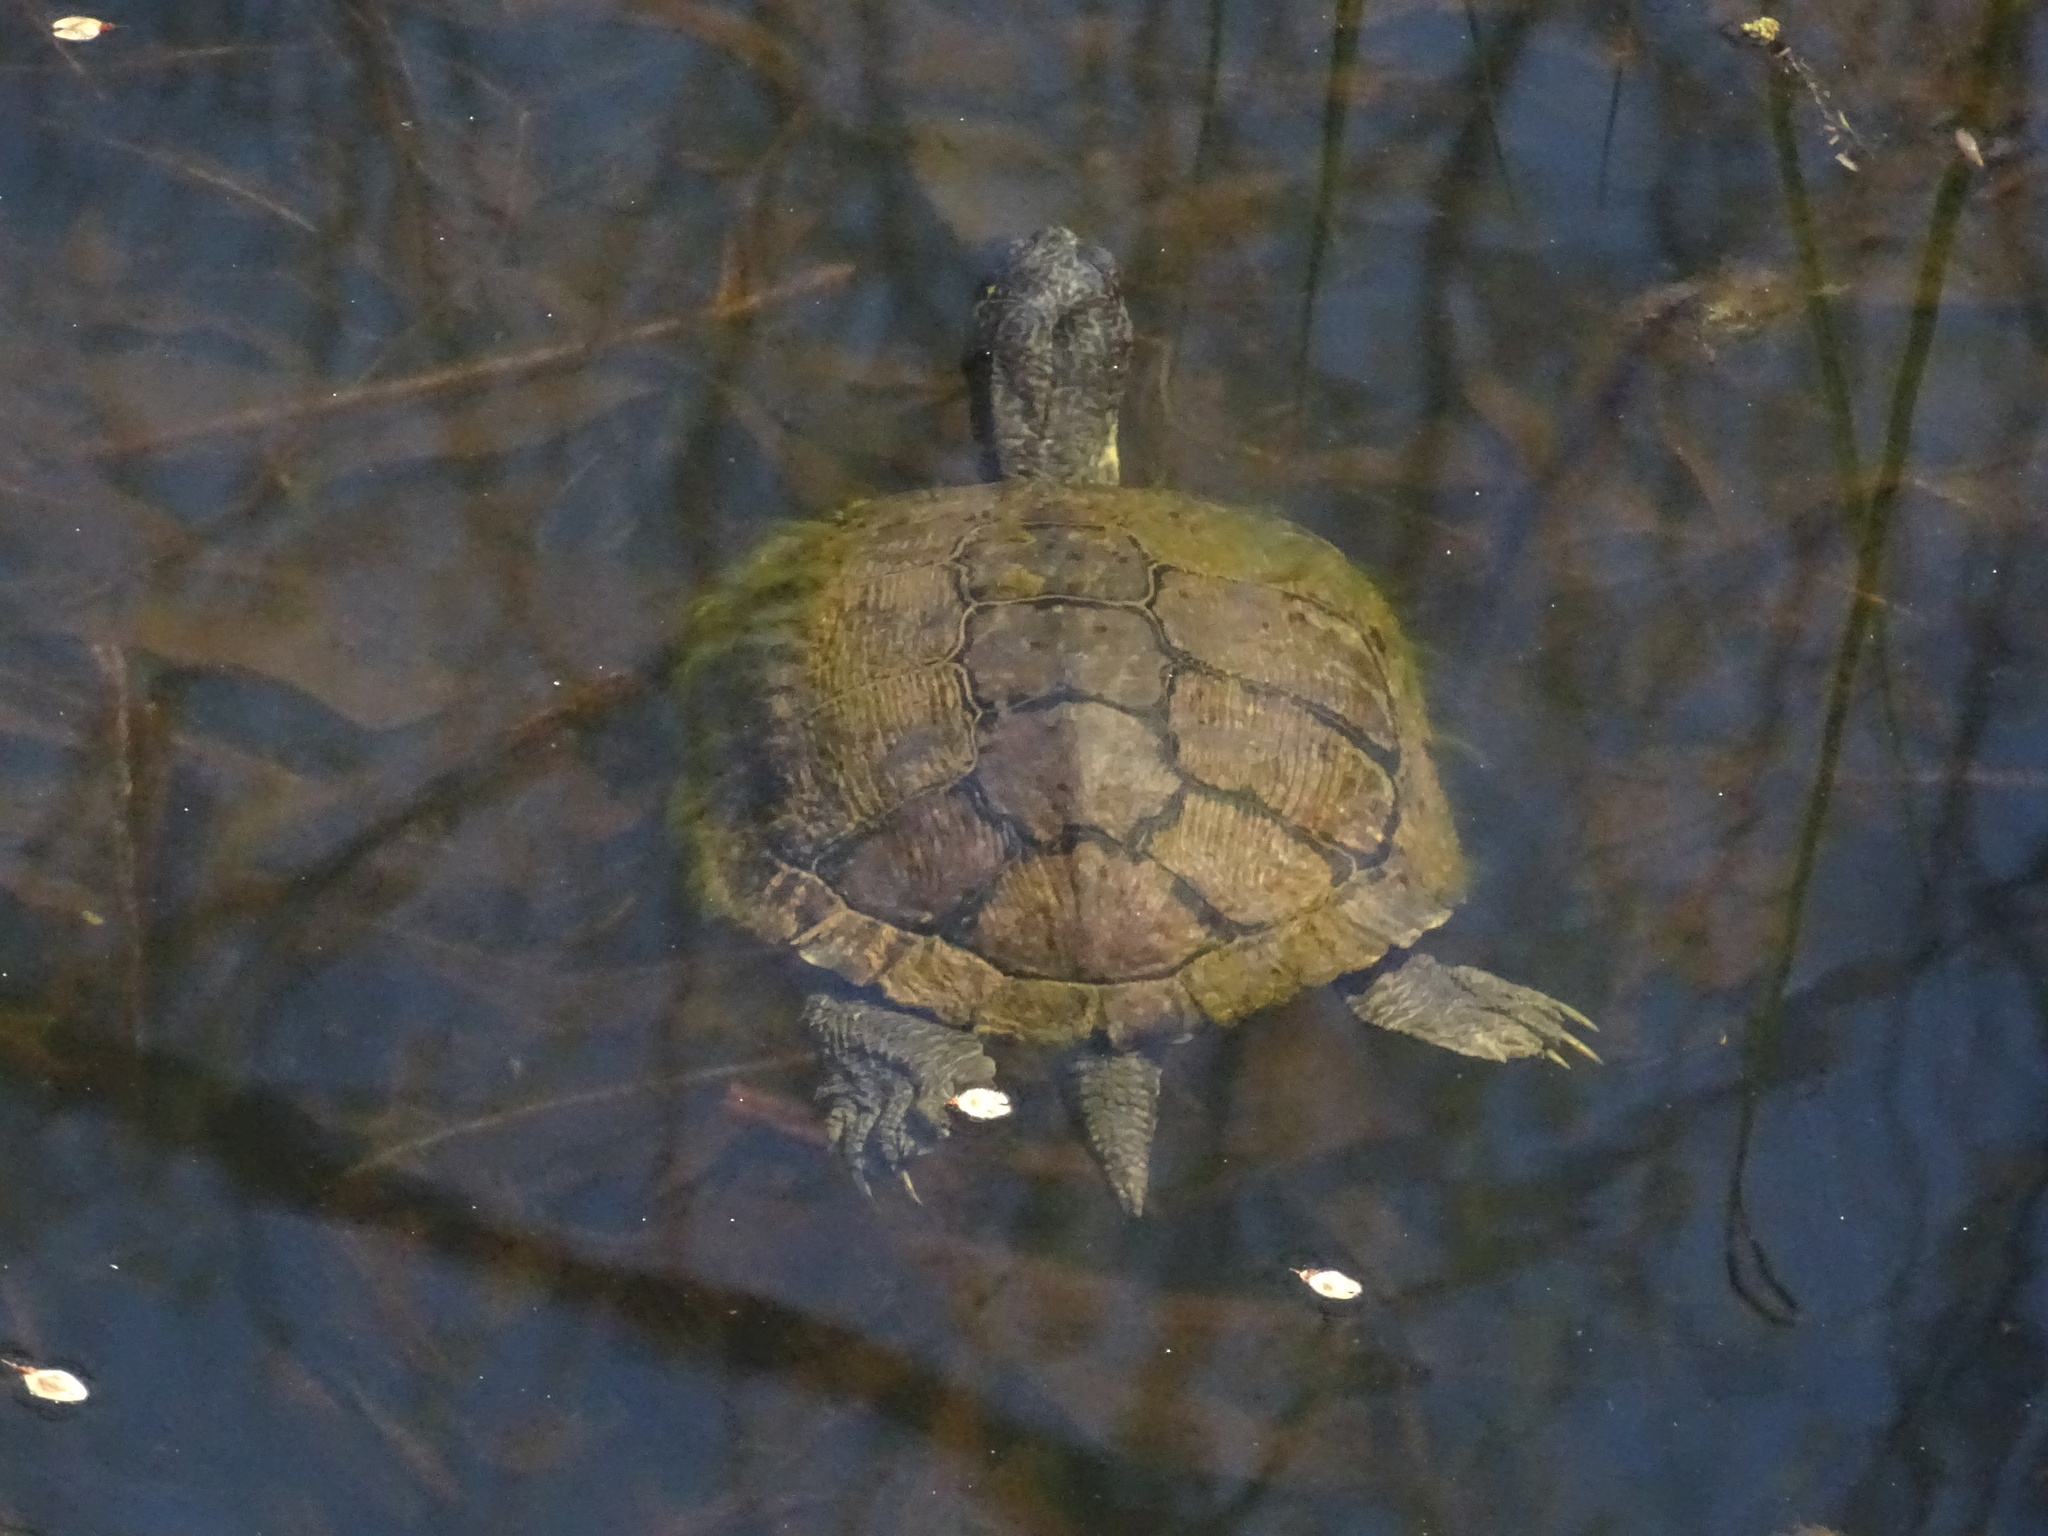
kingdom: Animalia
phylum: Chordata
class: Testudines
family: Emydidae
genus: Trachemys
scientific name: Trachemys scripta
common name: Slider
